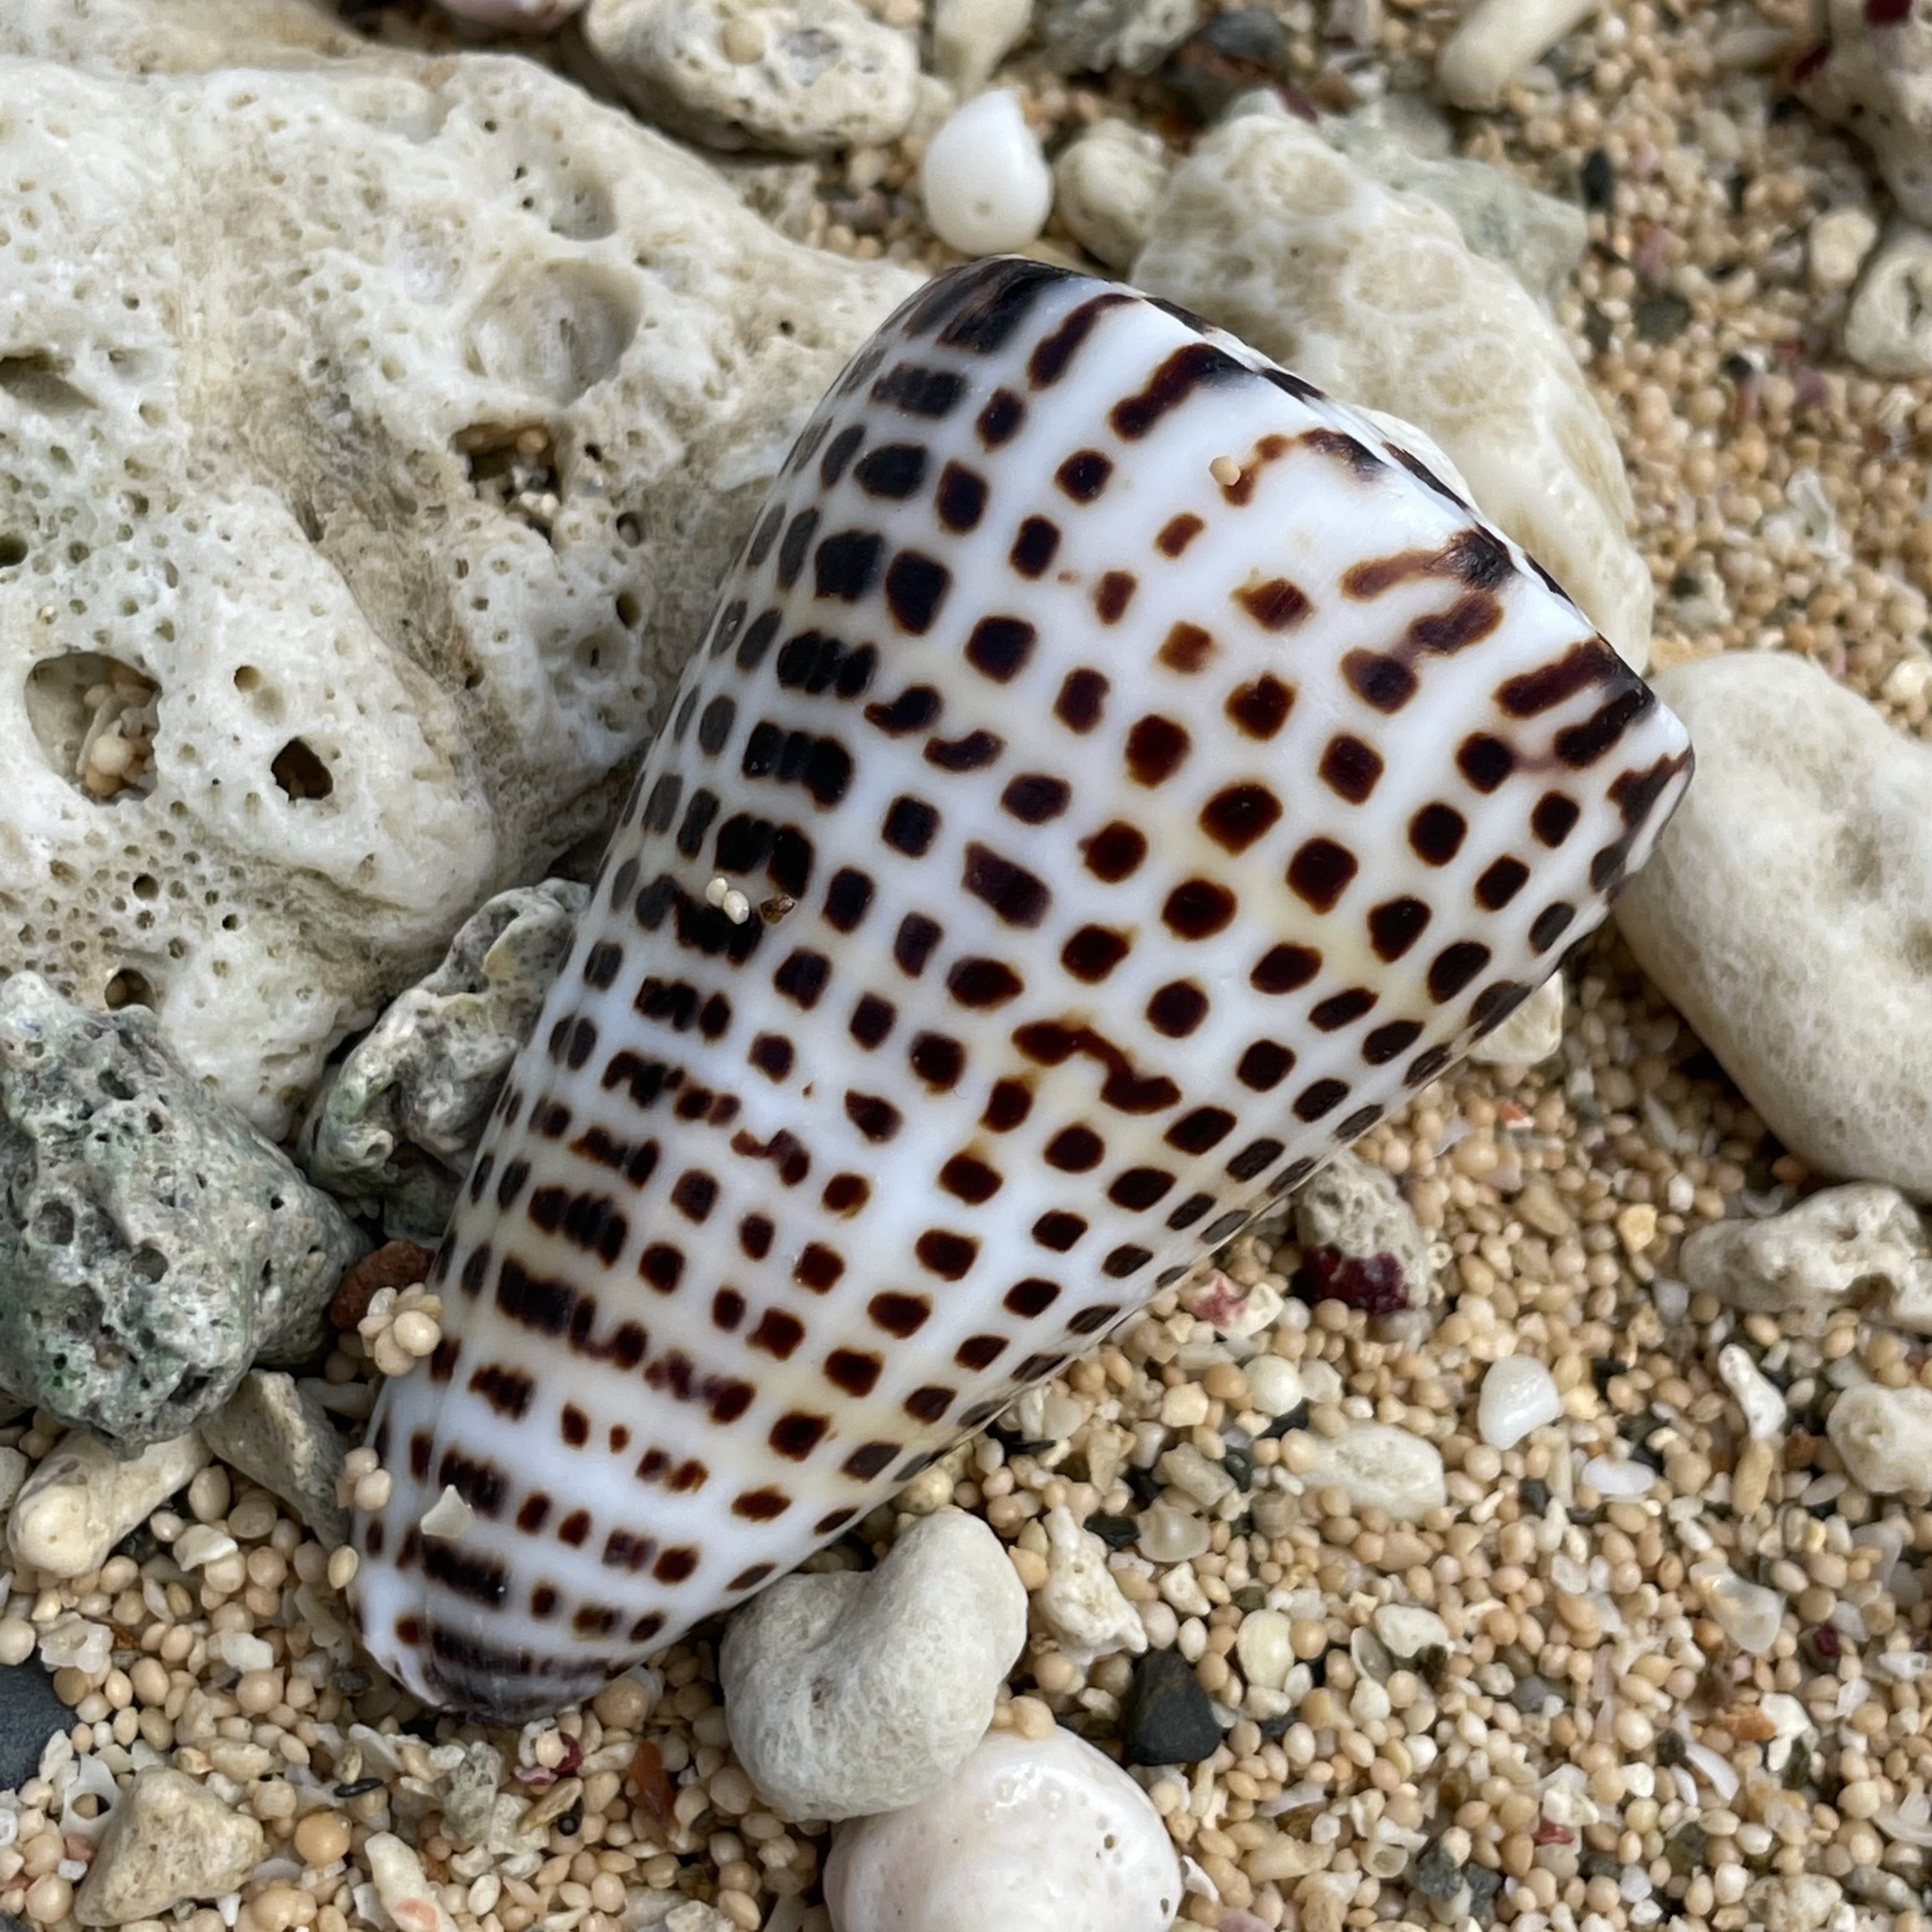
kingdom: Animalia
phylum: Mollusca
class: Gastropoda
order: Neogastropoda
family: Conidae
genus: Conus
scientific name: Conus litteratus
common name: Lettered cone
